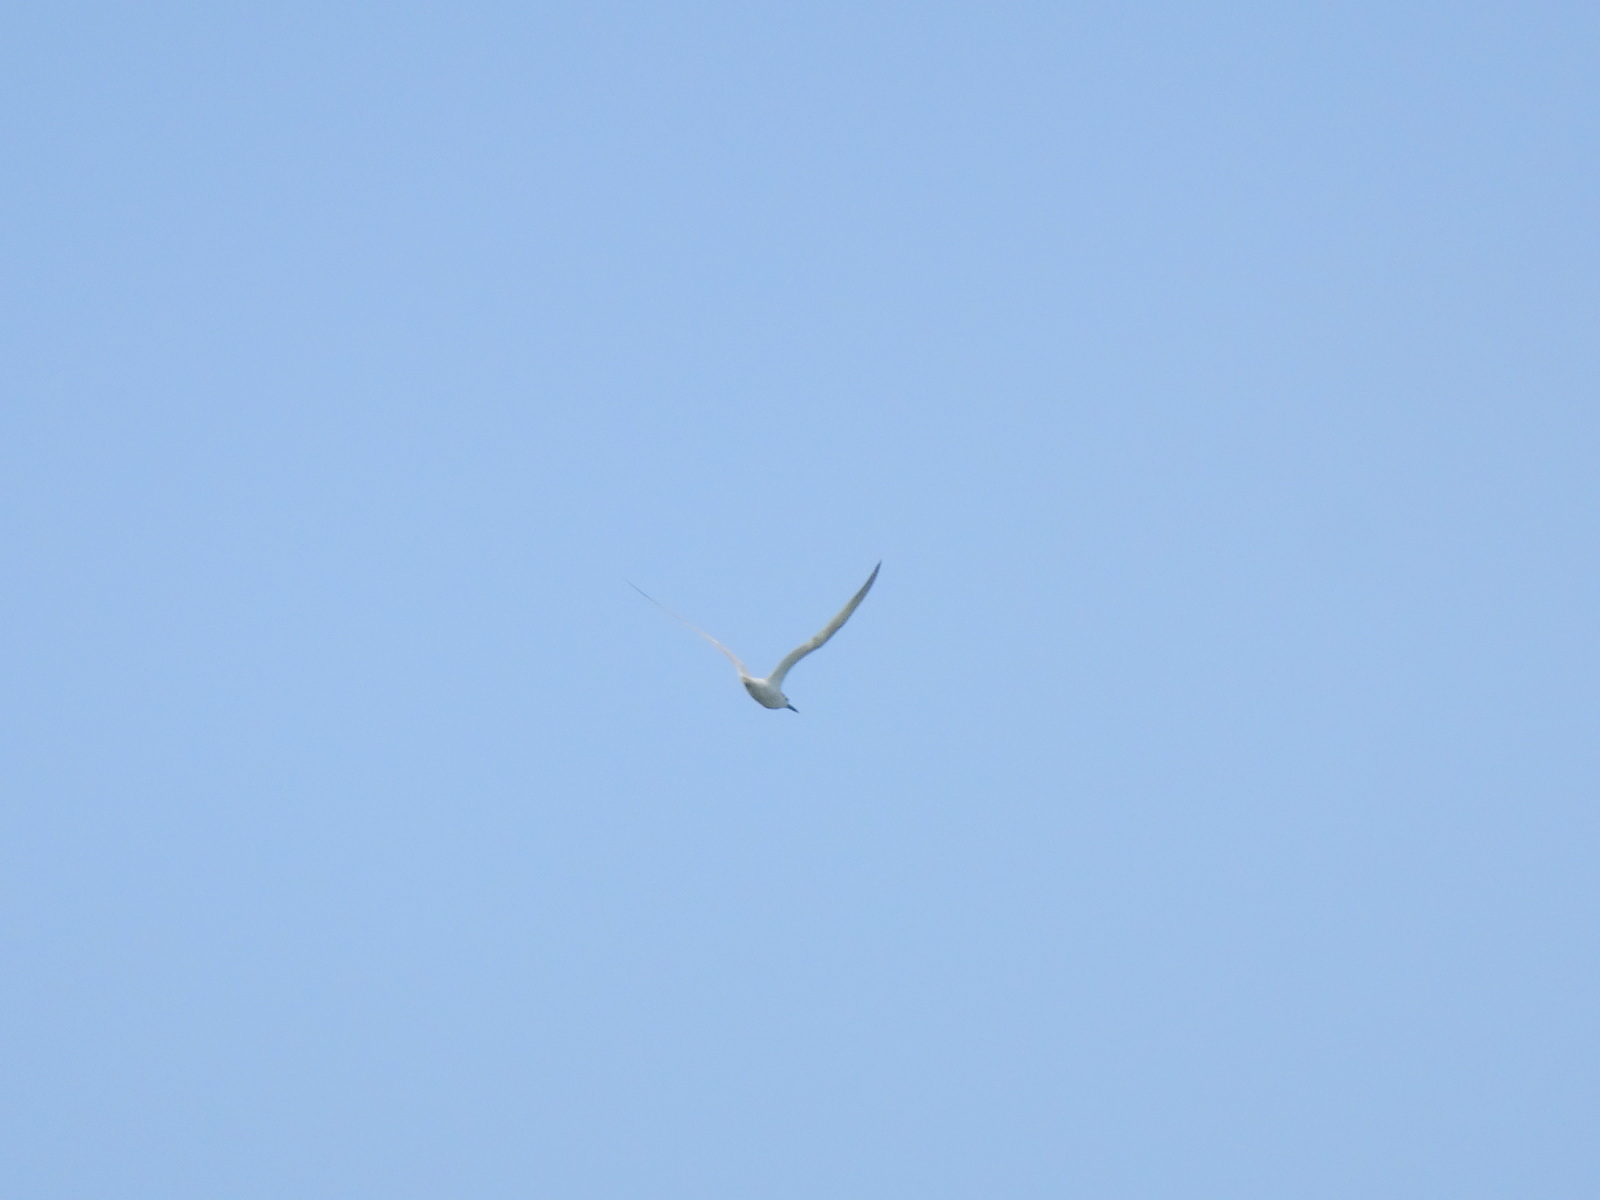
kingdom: Animalia
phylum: Chordata
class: Aves
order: Charadriiformes
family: Laridae
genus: Thalasseus
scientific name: Thalasseus sandvicensis
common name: Sandwich tern
